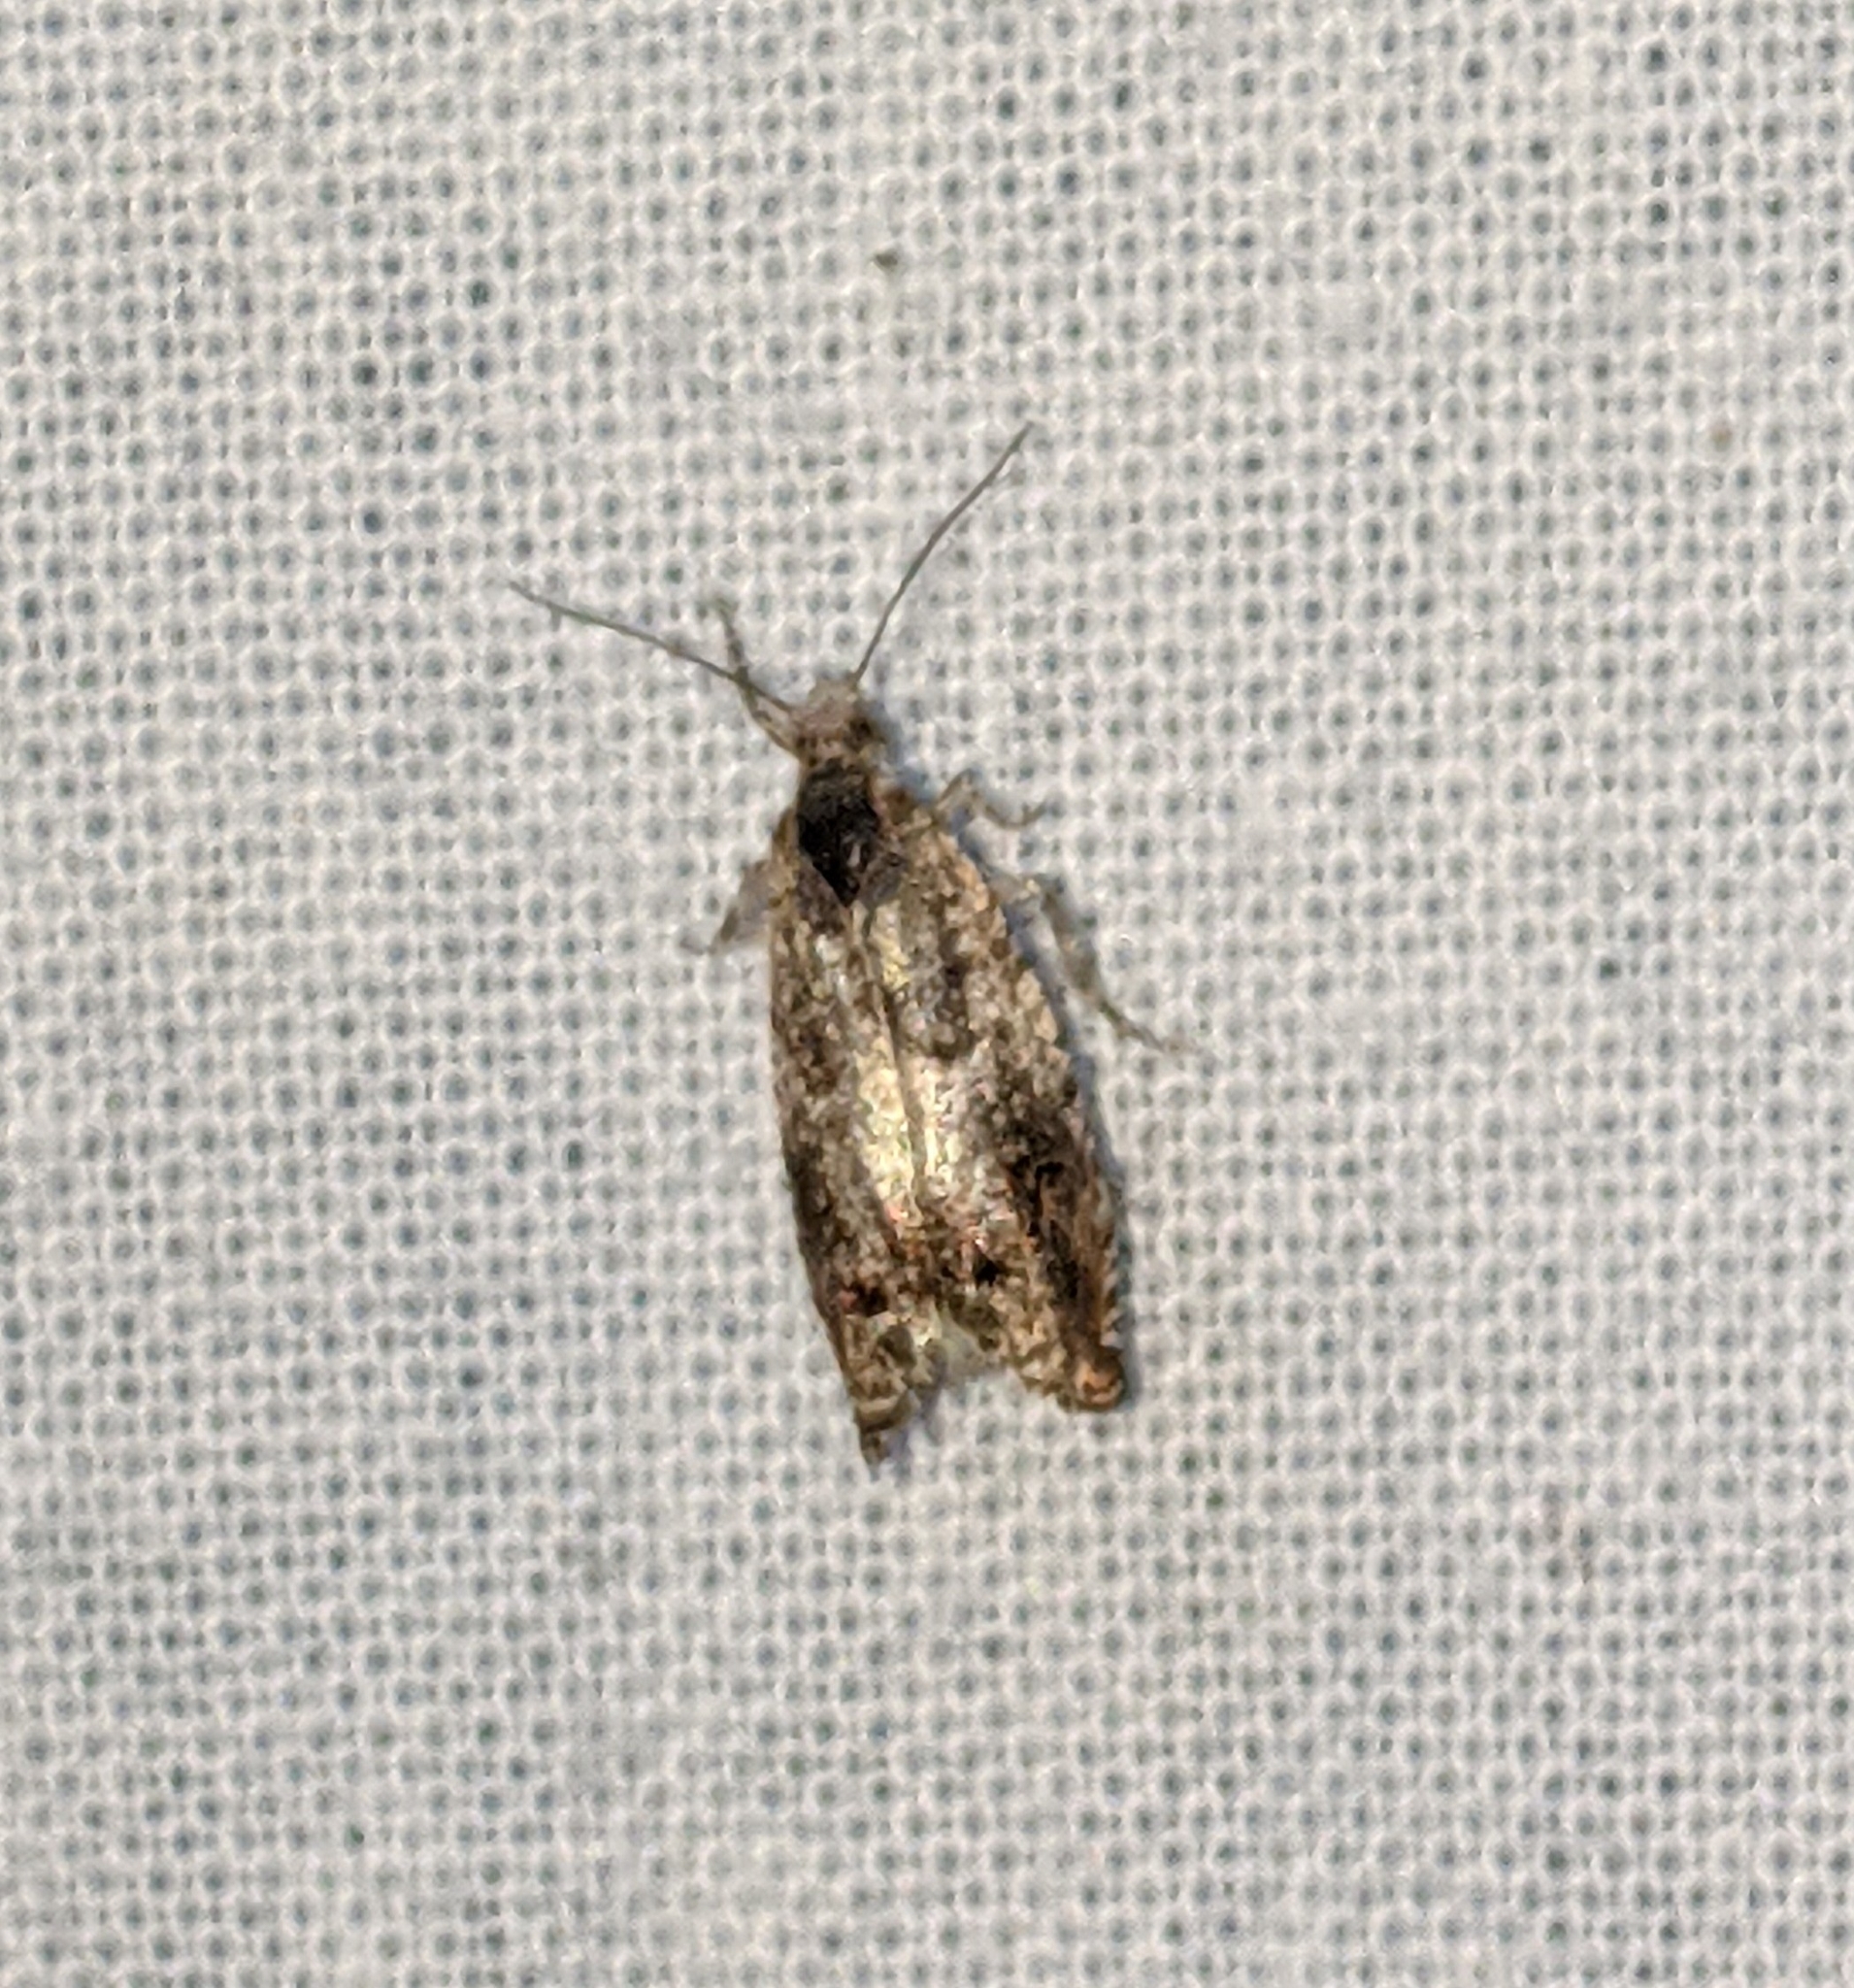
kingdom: Animalia
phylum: Arthropoda
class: Insecta
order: Lepidoptera
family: Tortricidae
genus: Epinotia
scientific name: Epinotia albangulana
